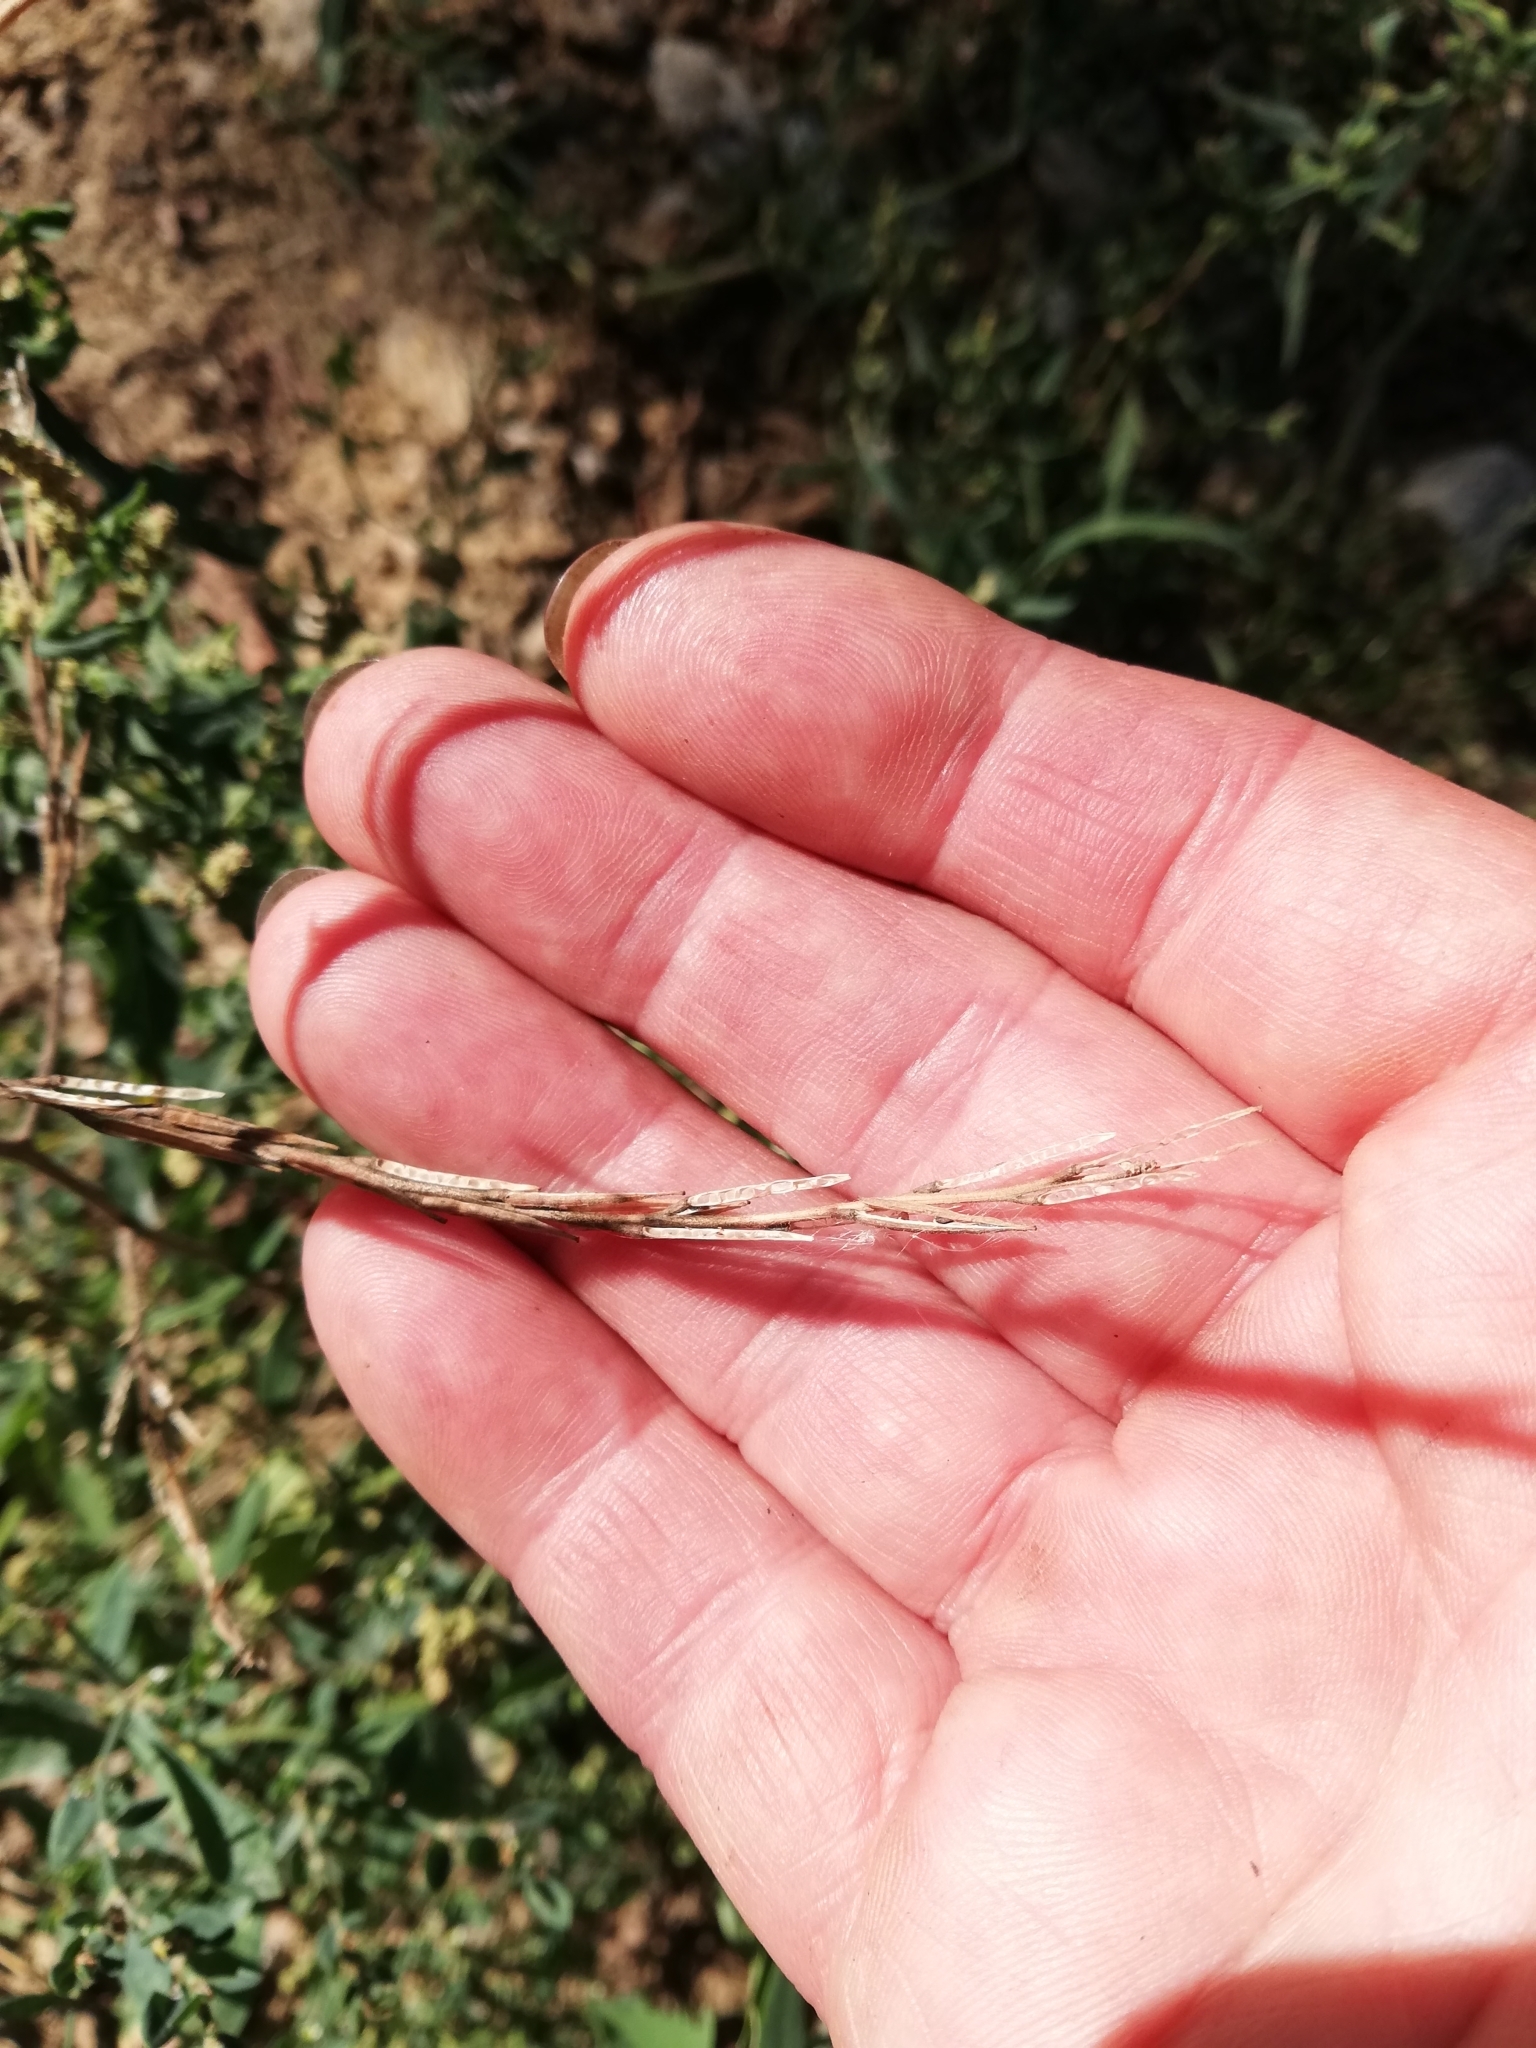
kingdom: Plantae
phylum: Tracheophyta
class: Magnoliopsida
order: Brassicales
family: Brassicaceae
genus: Sisymbrium
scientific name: Sisymbrium officinale
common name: Hedge mustard
